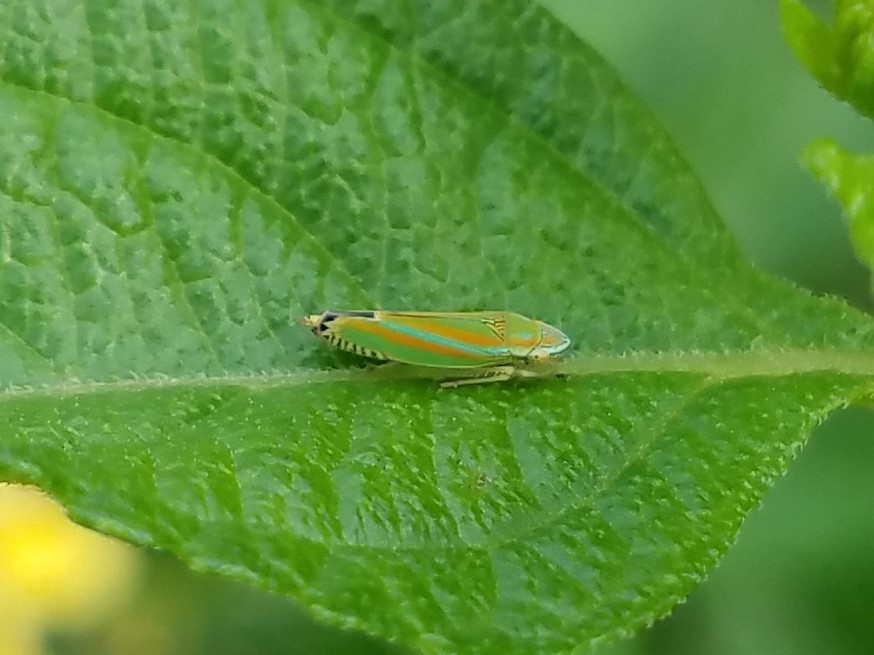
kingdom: Animalia
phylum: Arthropoda
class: Insecta
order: Hemiptera
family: Cicadellidae
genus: Graphocephala
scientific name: Graphocephala versuta
